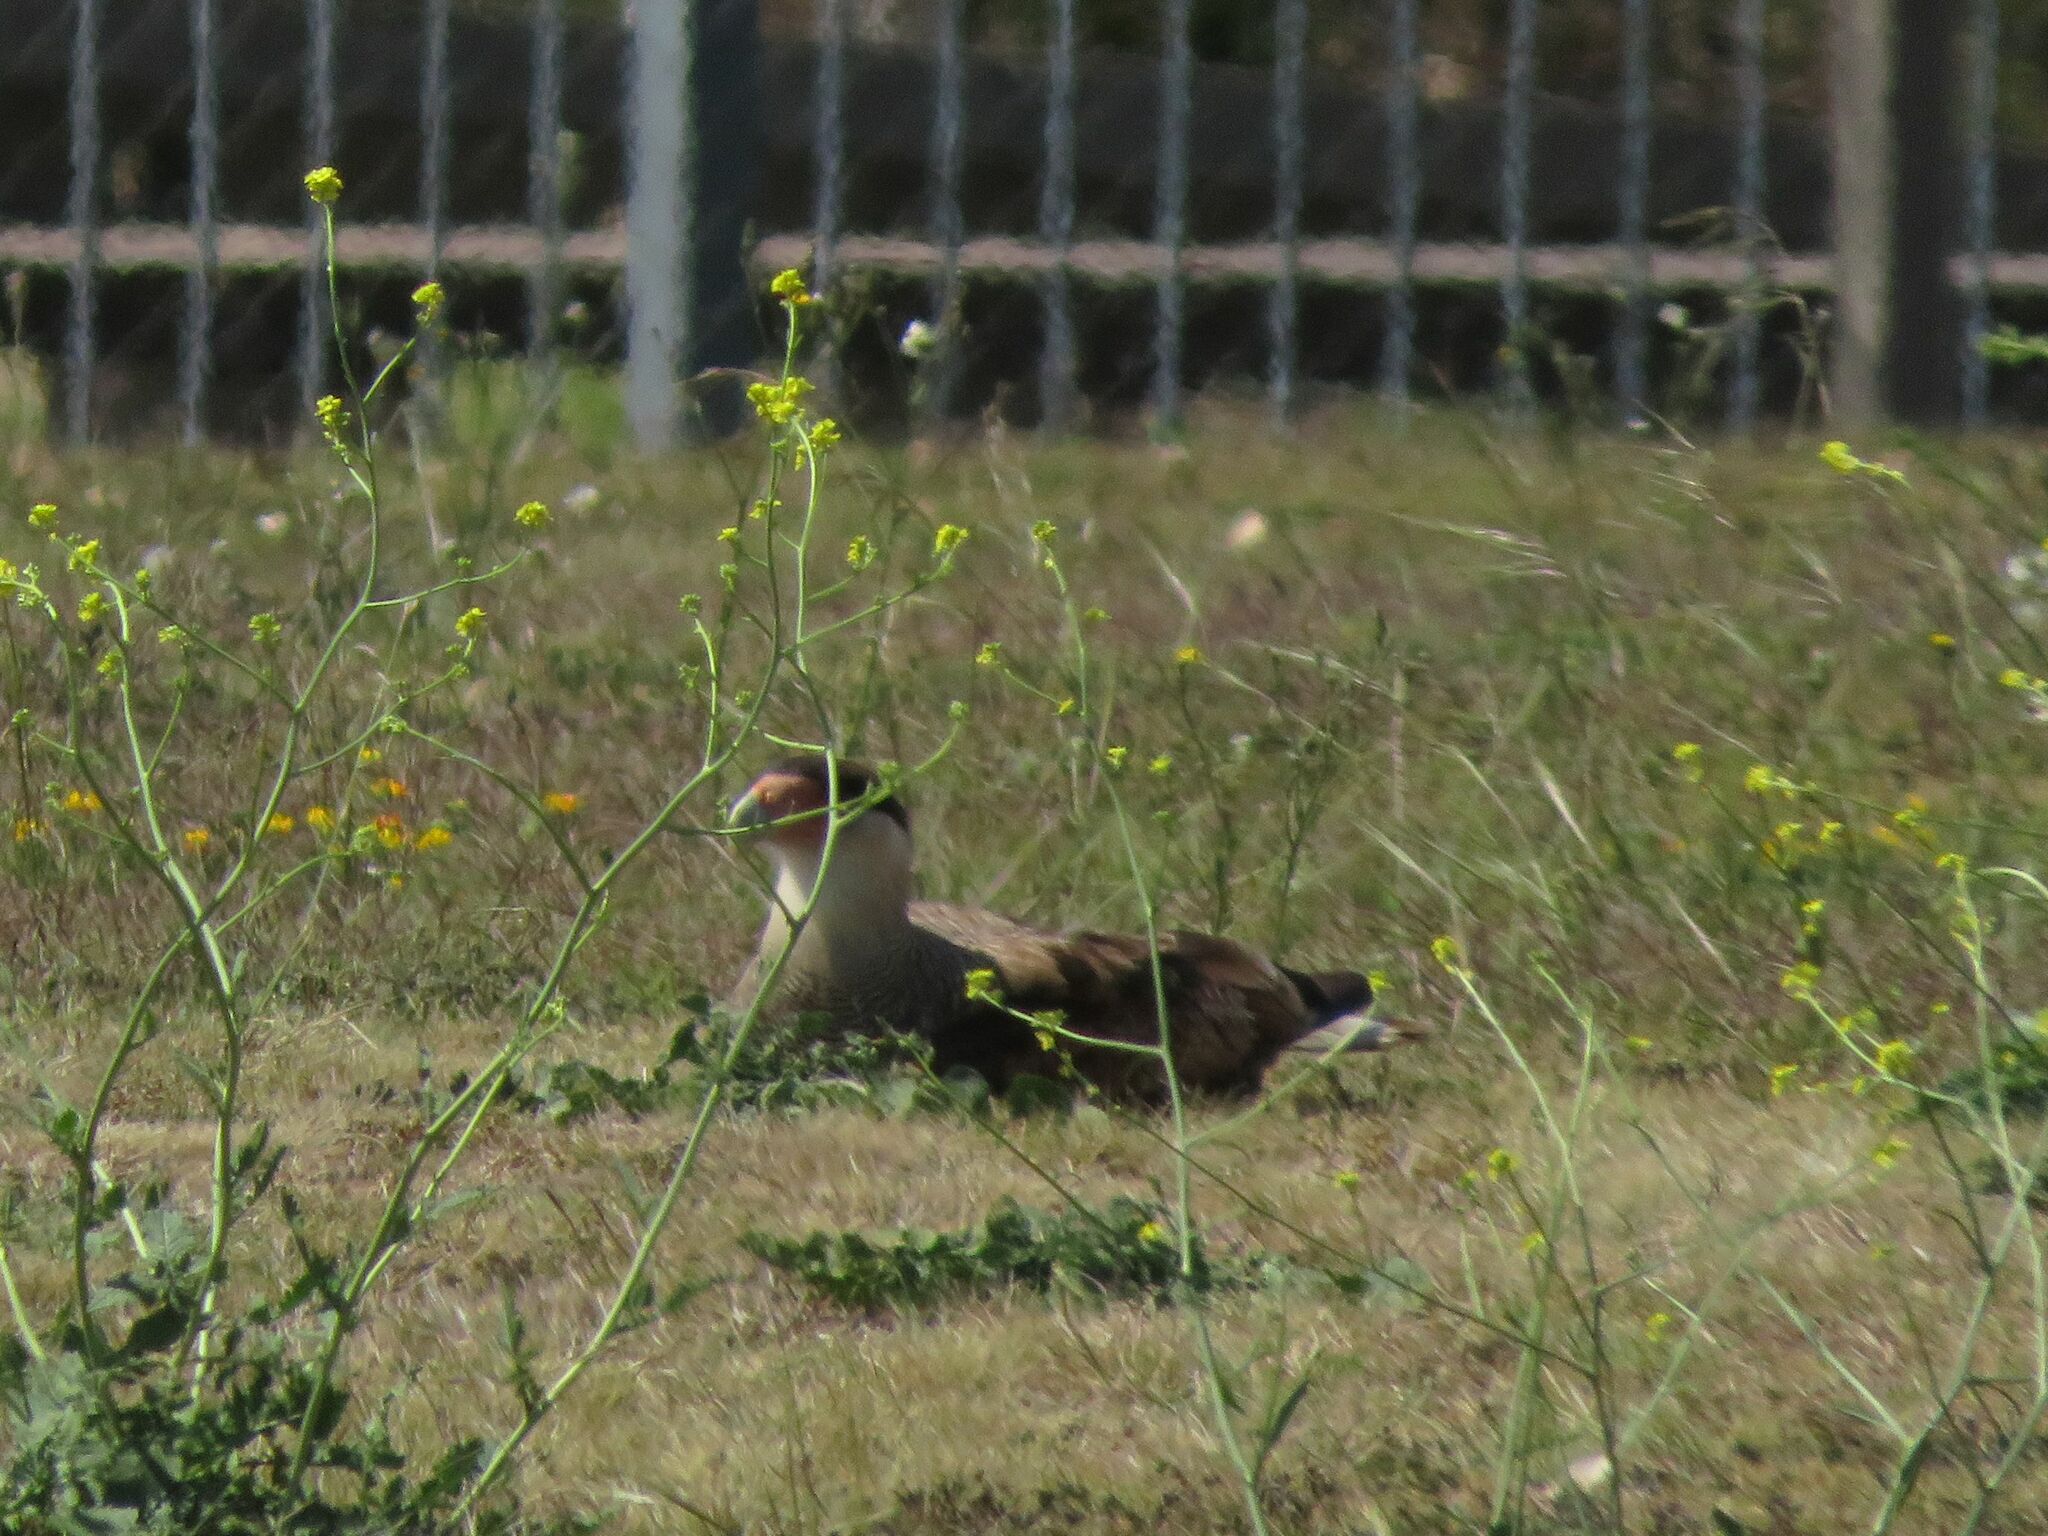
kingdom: Animalia
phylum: Chordata
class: Aves
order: Falconiformes
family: Falconidae
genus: Caracara
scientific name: Caracara plancus
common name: Southern caracara
